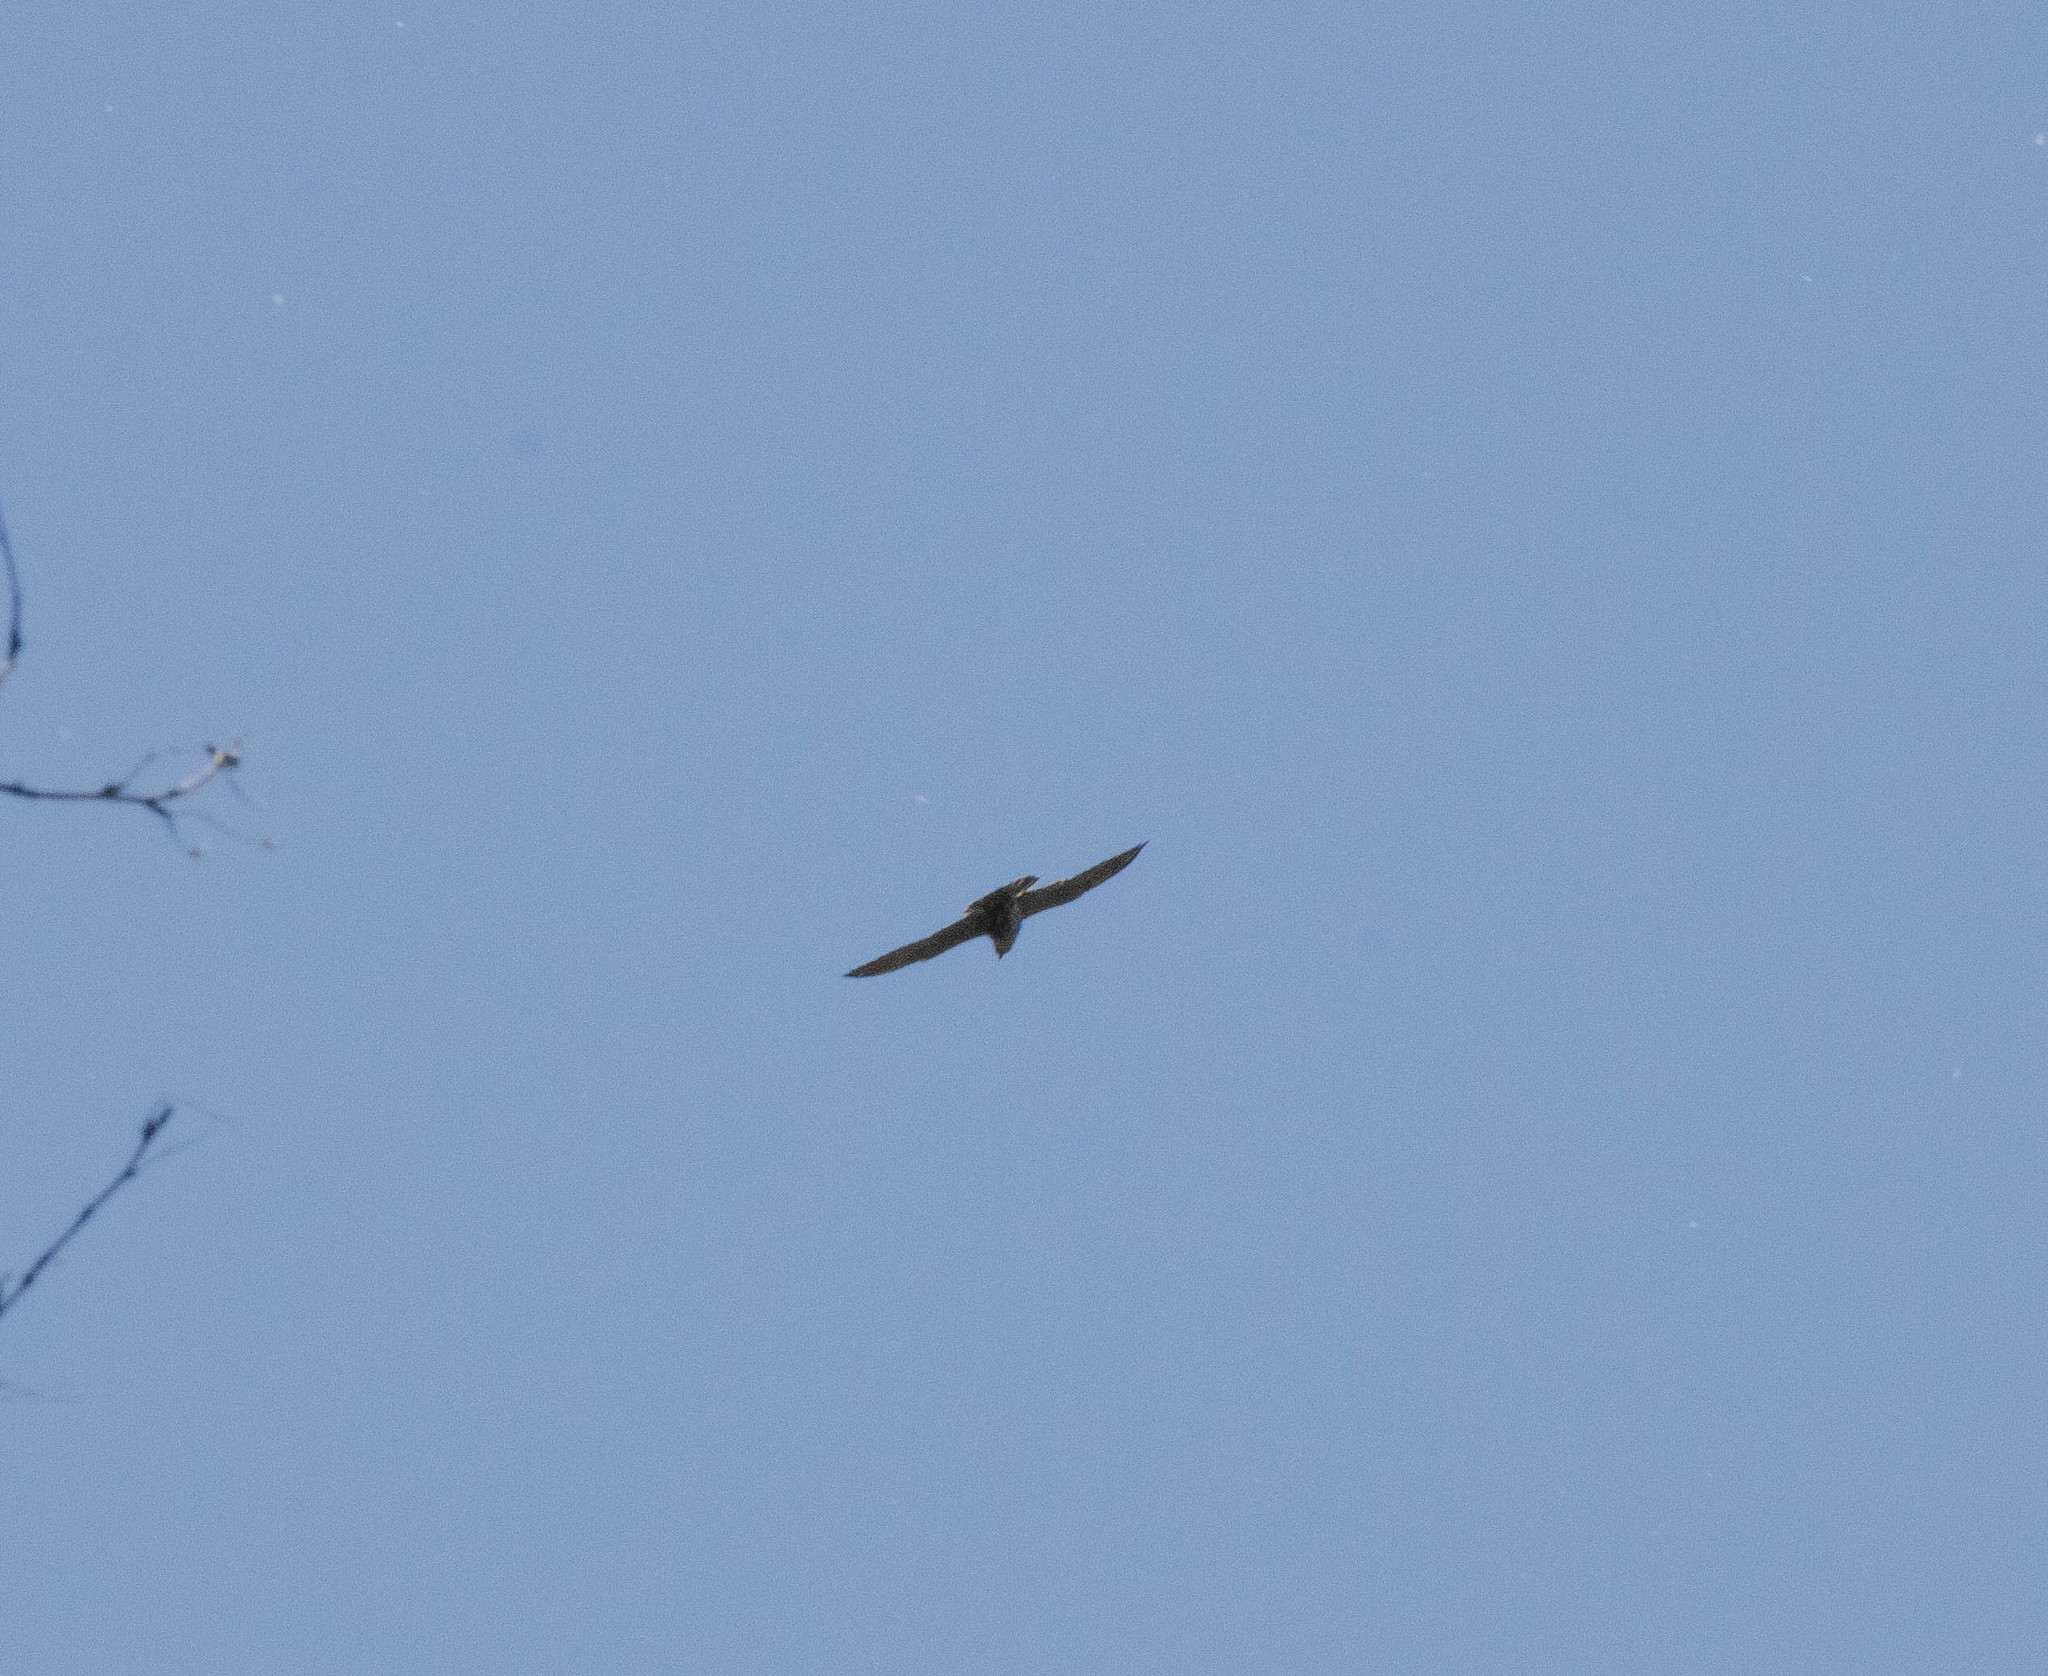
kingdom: Animalia
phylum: Chordata
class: Aves
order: Falconiformes
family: Falconidae
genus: Falco
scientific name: Falco peregrinus
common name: Peregrine falcon
